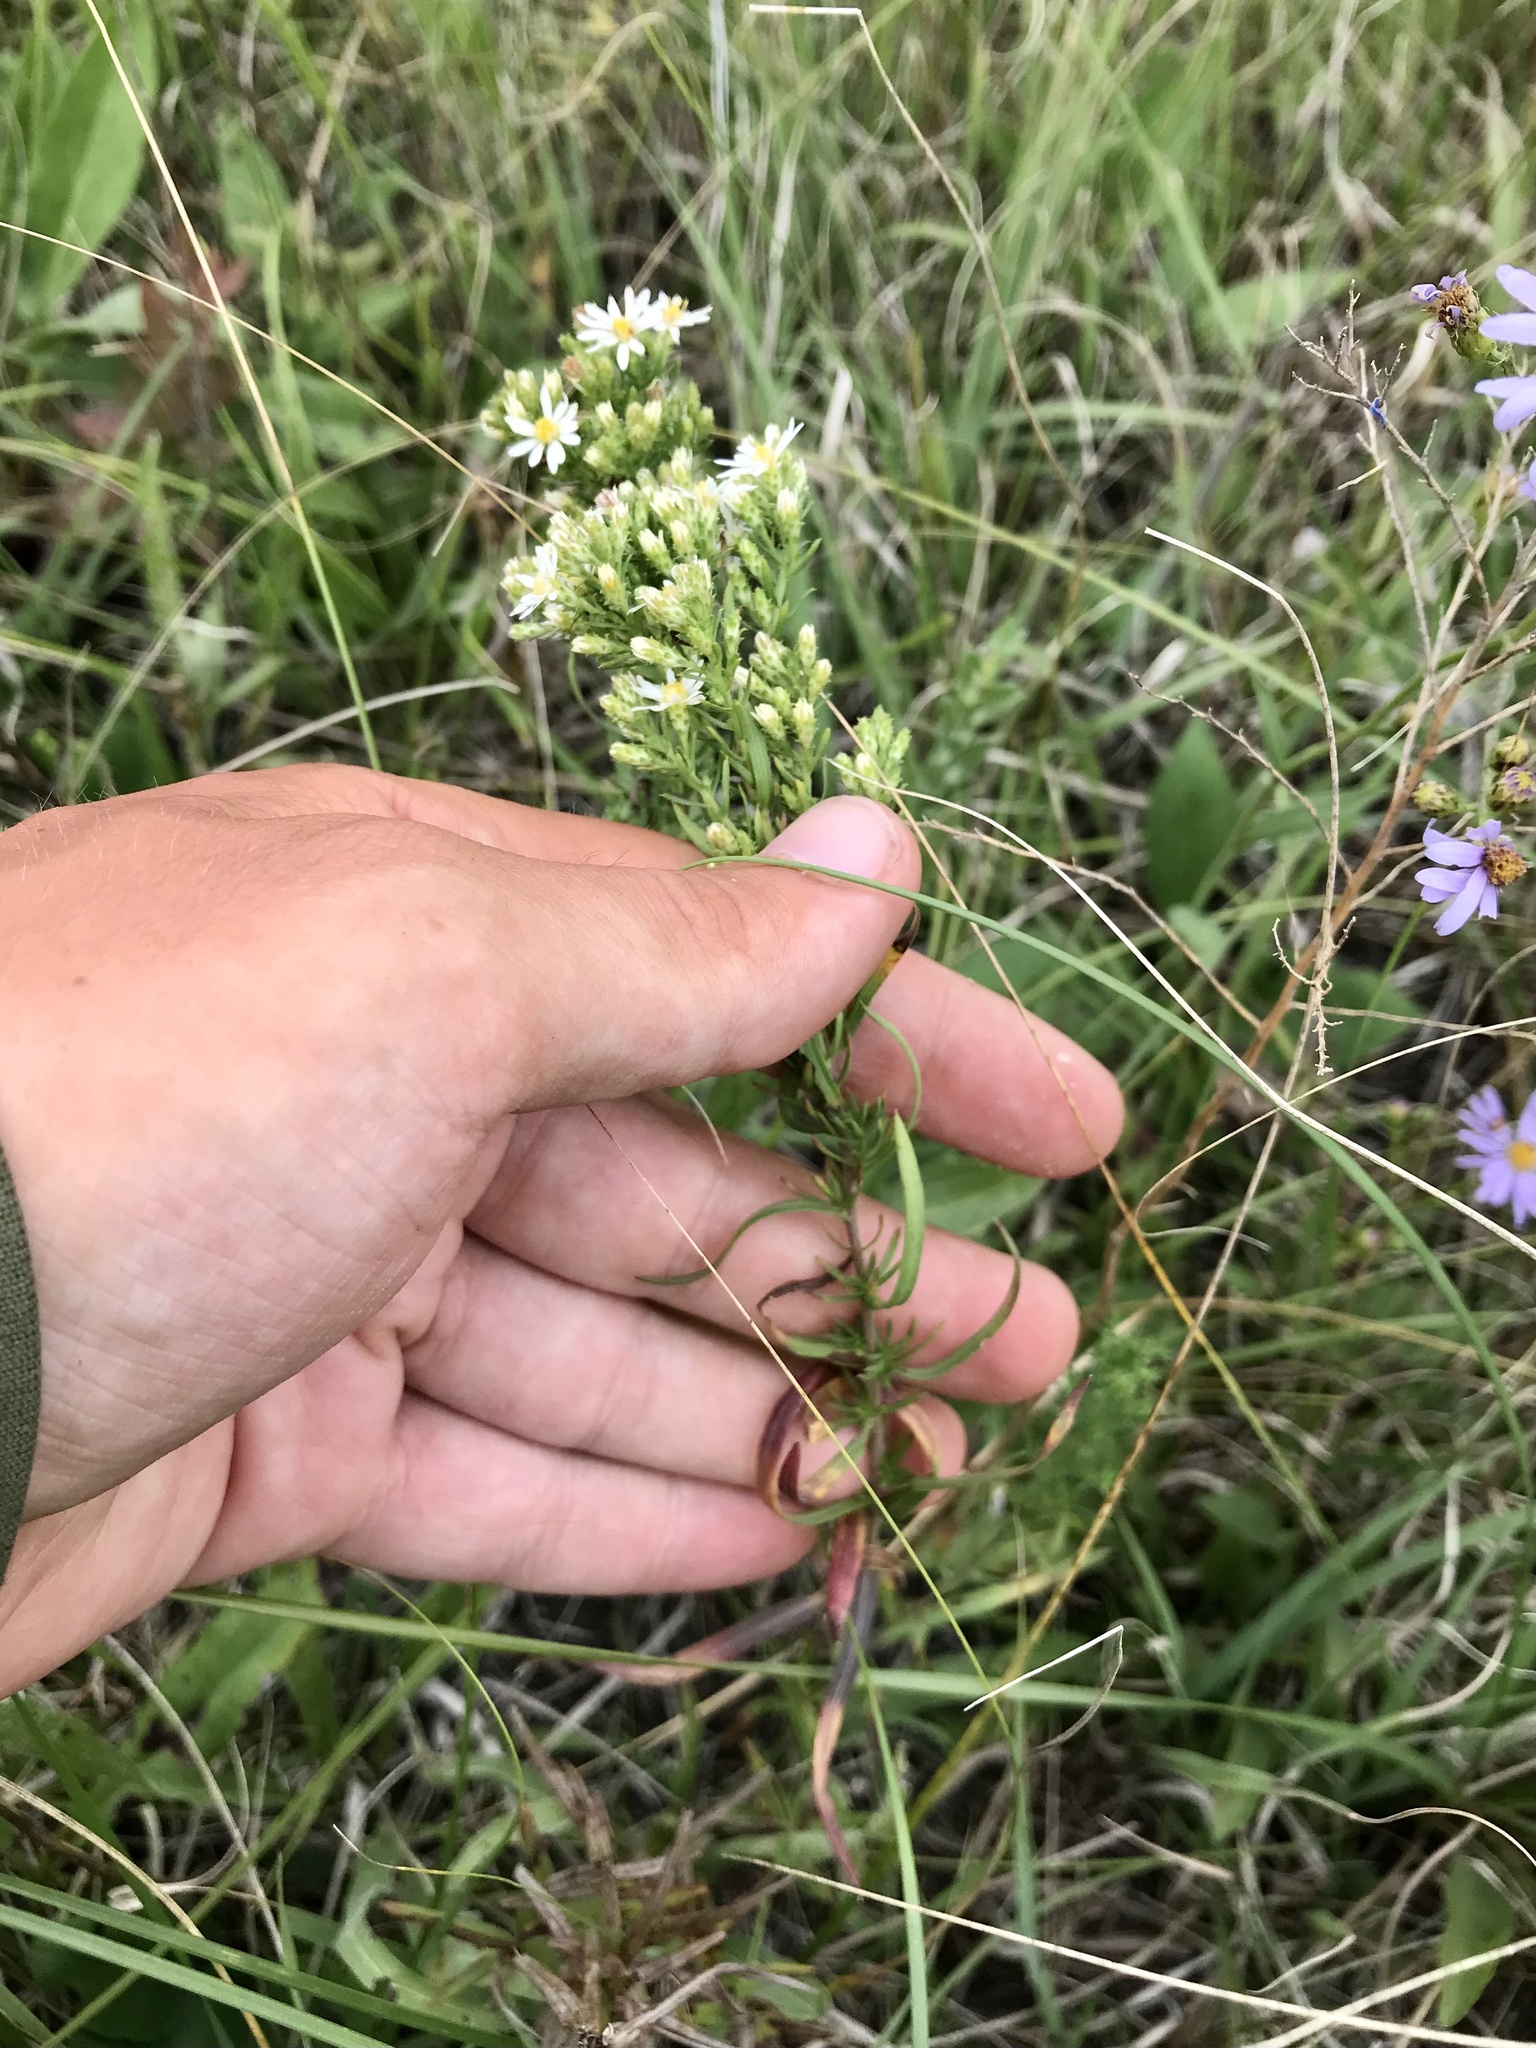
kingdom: Plantae
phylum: Tracheophyta
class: Magnoliopsida
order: Asterales
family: Asteraceae
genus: Symphyotrichum
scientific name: Symphyotrichum ericoides
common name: Heath aster
